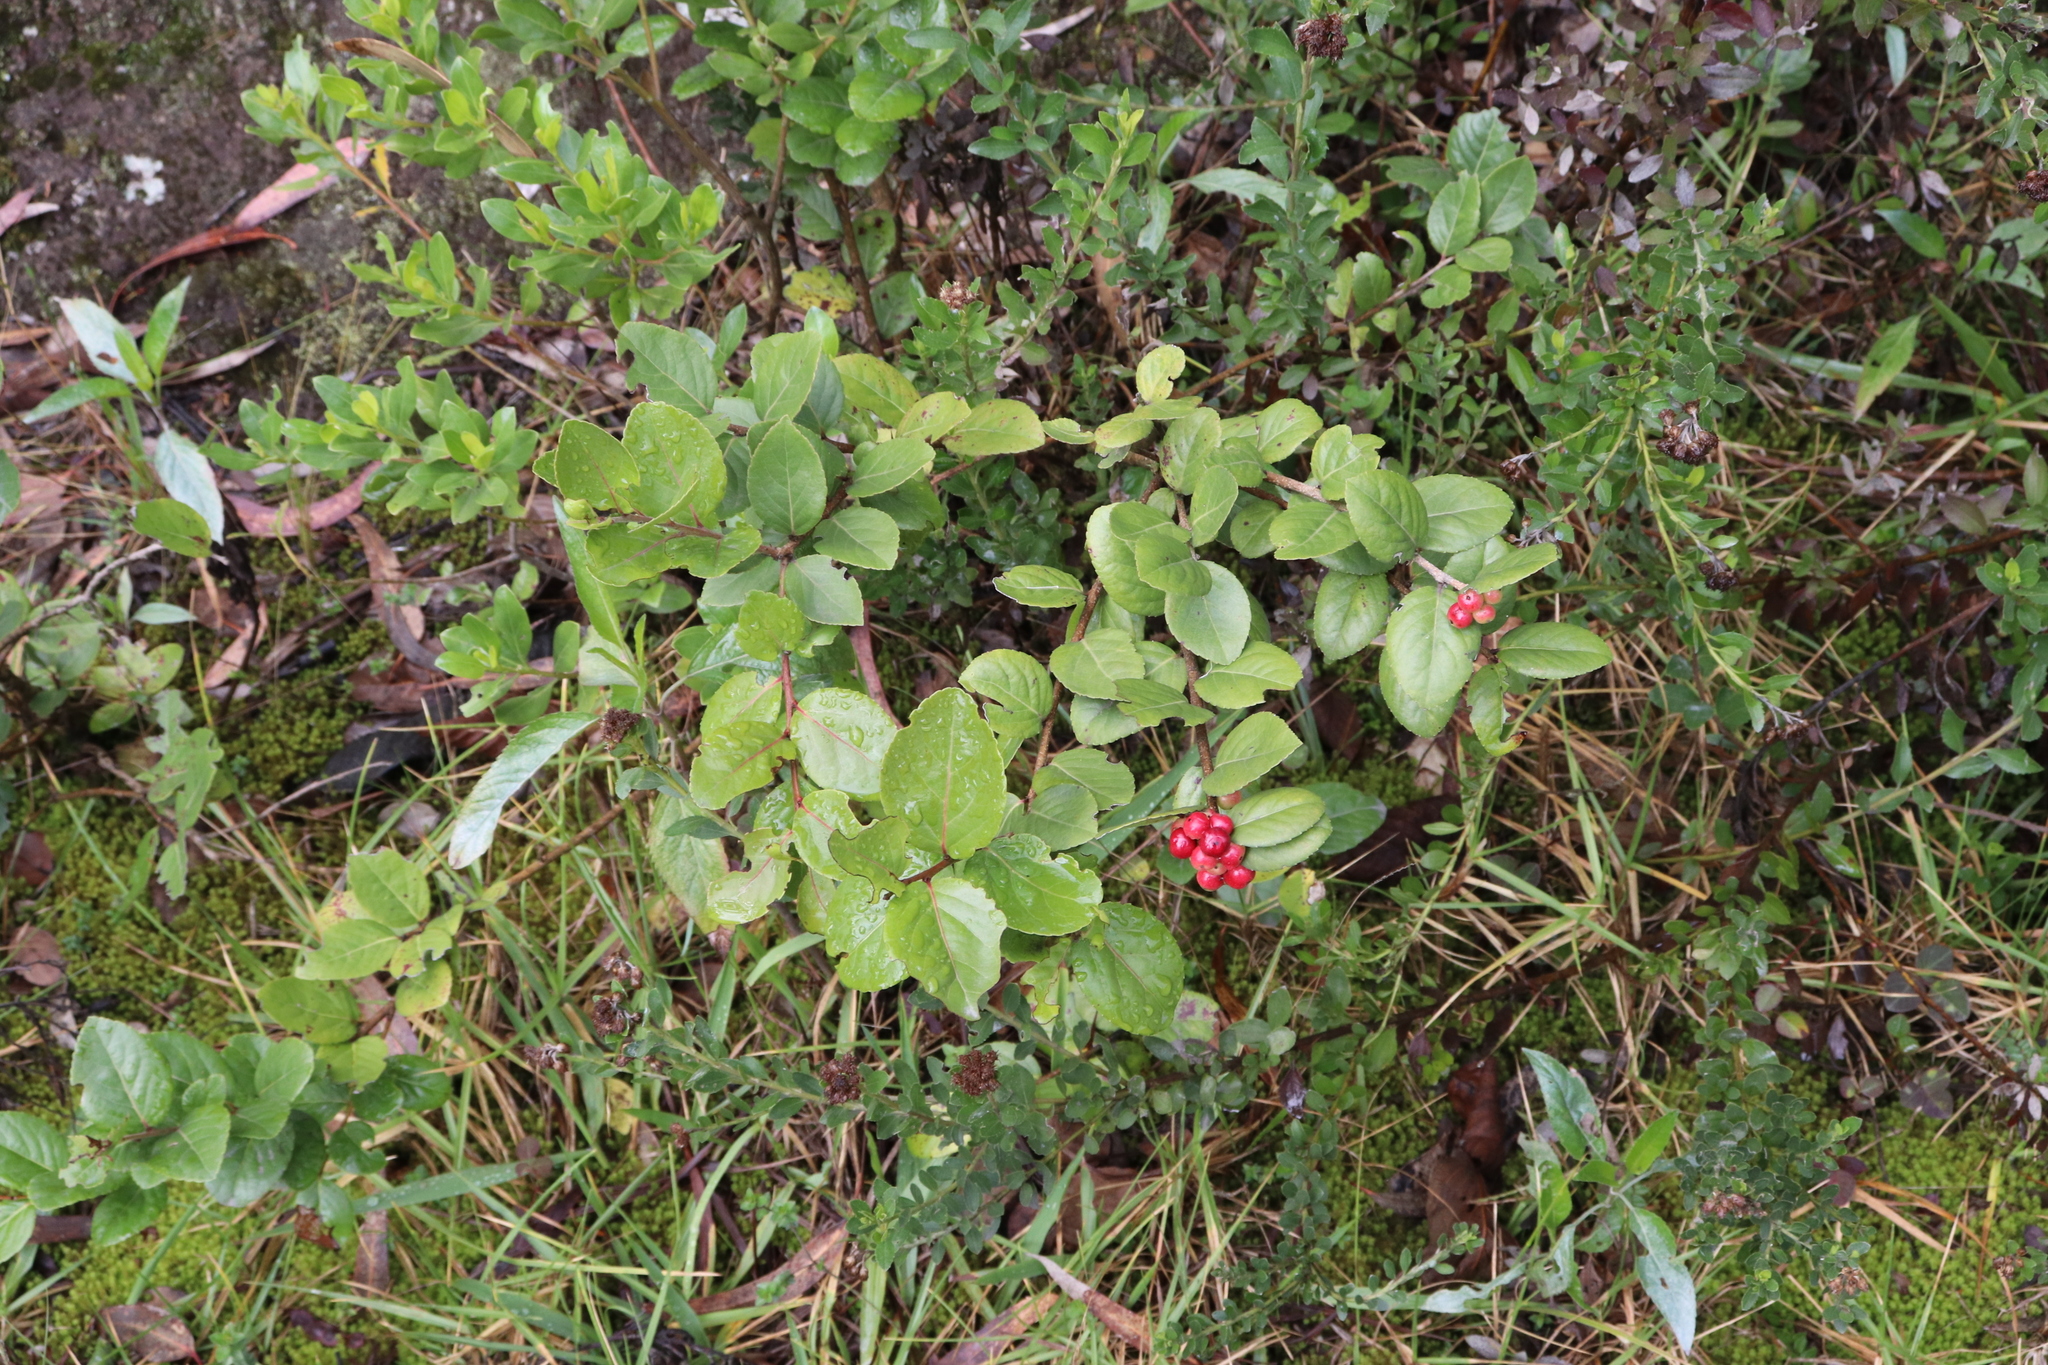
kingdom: Plantae
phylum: Tracheophyta
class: Magnoliopsida
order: Malpighiales
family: Salicaceae
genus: Xylosma
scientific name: Xylosma spiculifera
